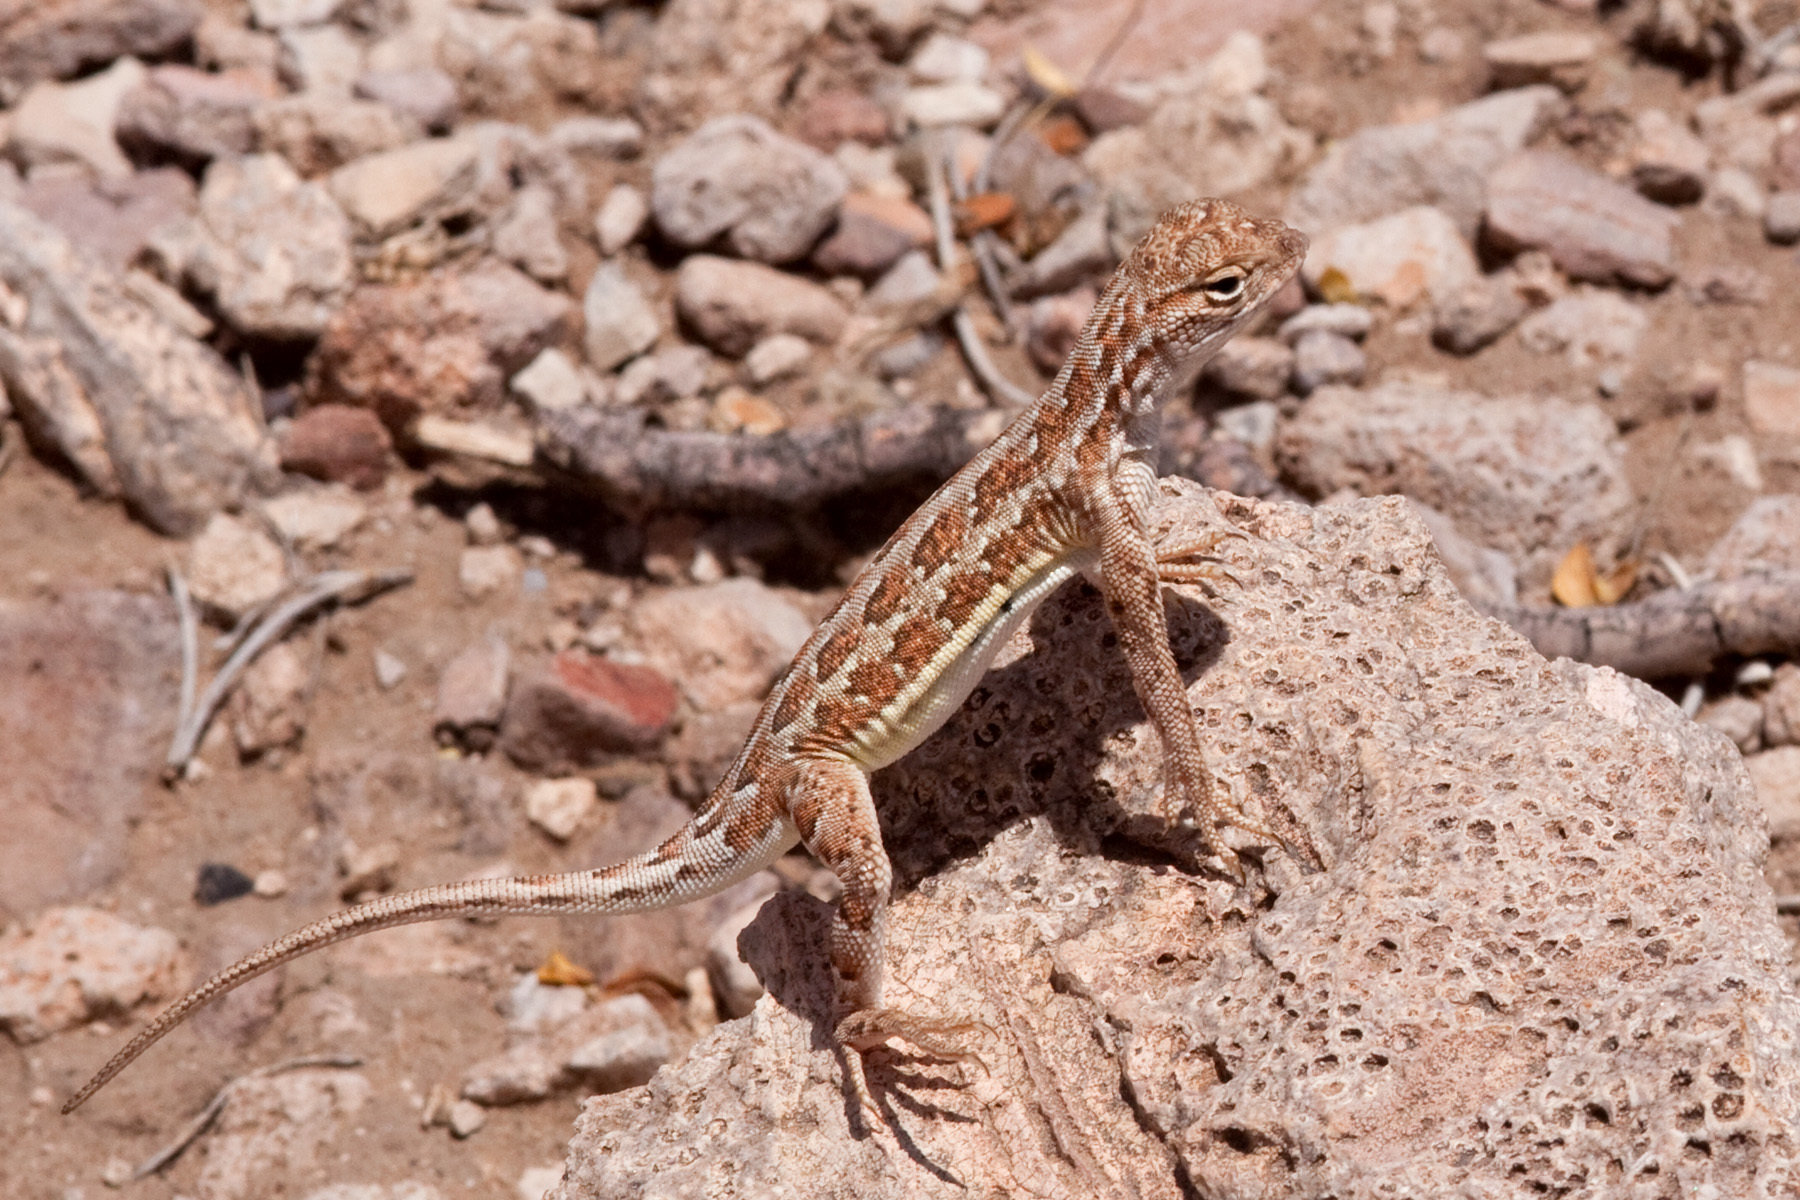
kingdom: Animalia
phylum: Chordata
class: Squamata
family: Phrynosomatidae
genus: Holbrookia
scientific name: Holbrookia maculata
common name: Lesser earless lizard
